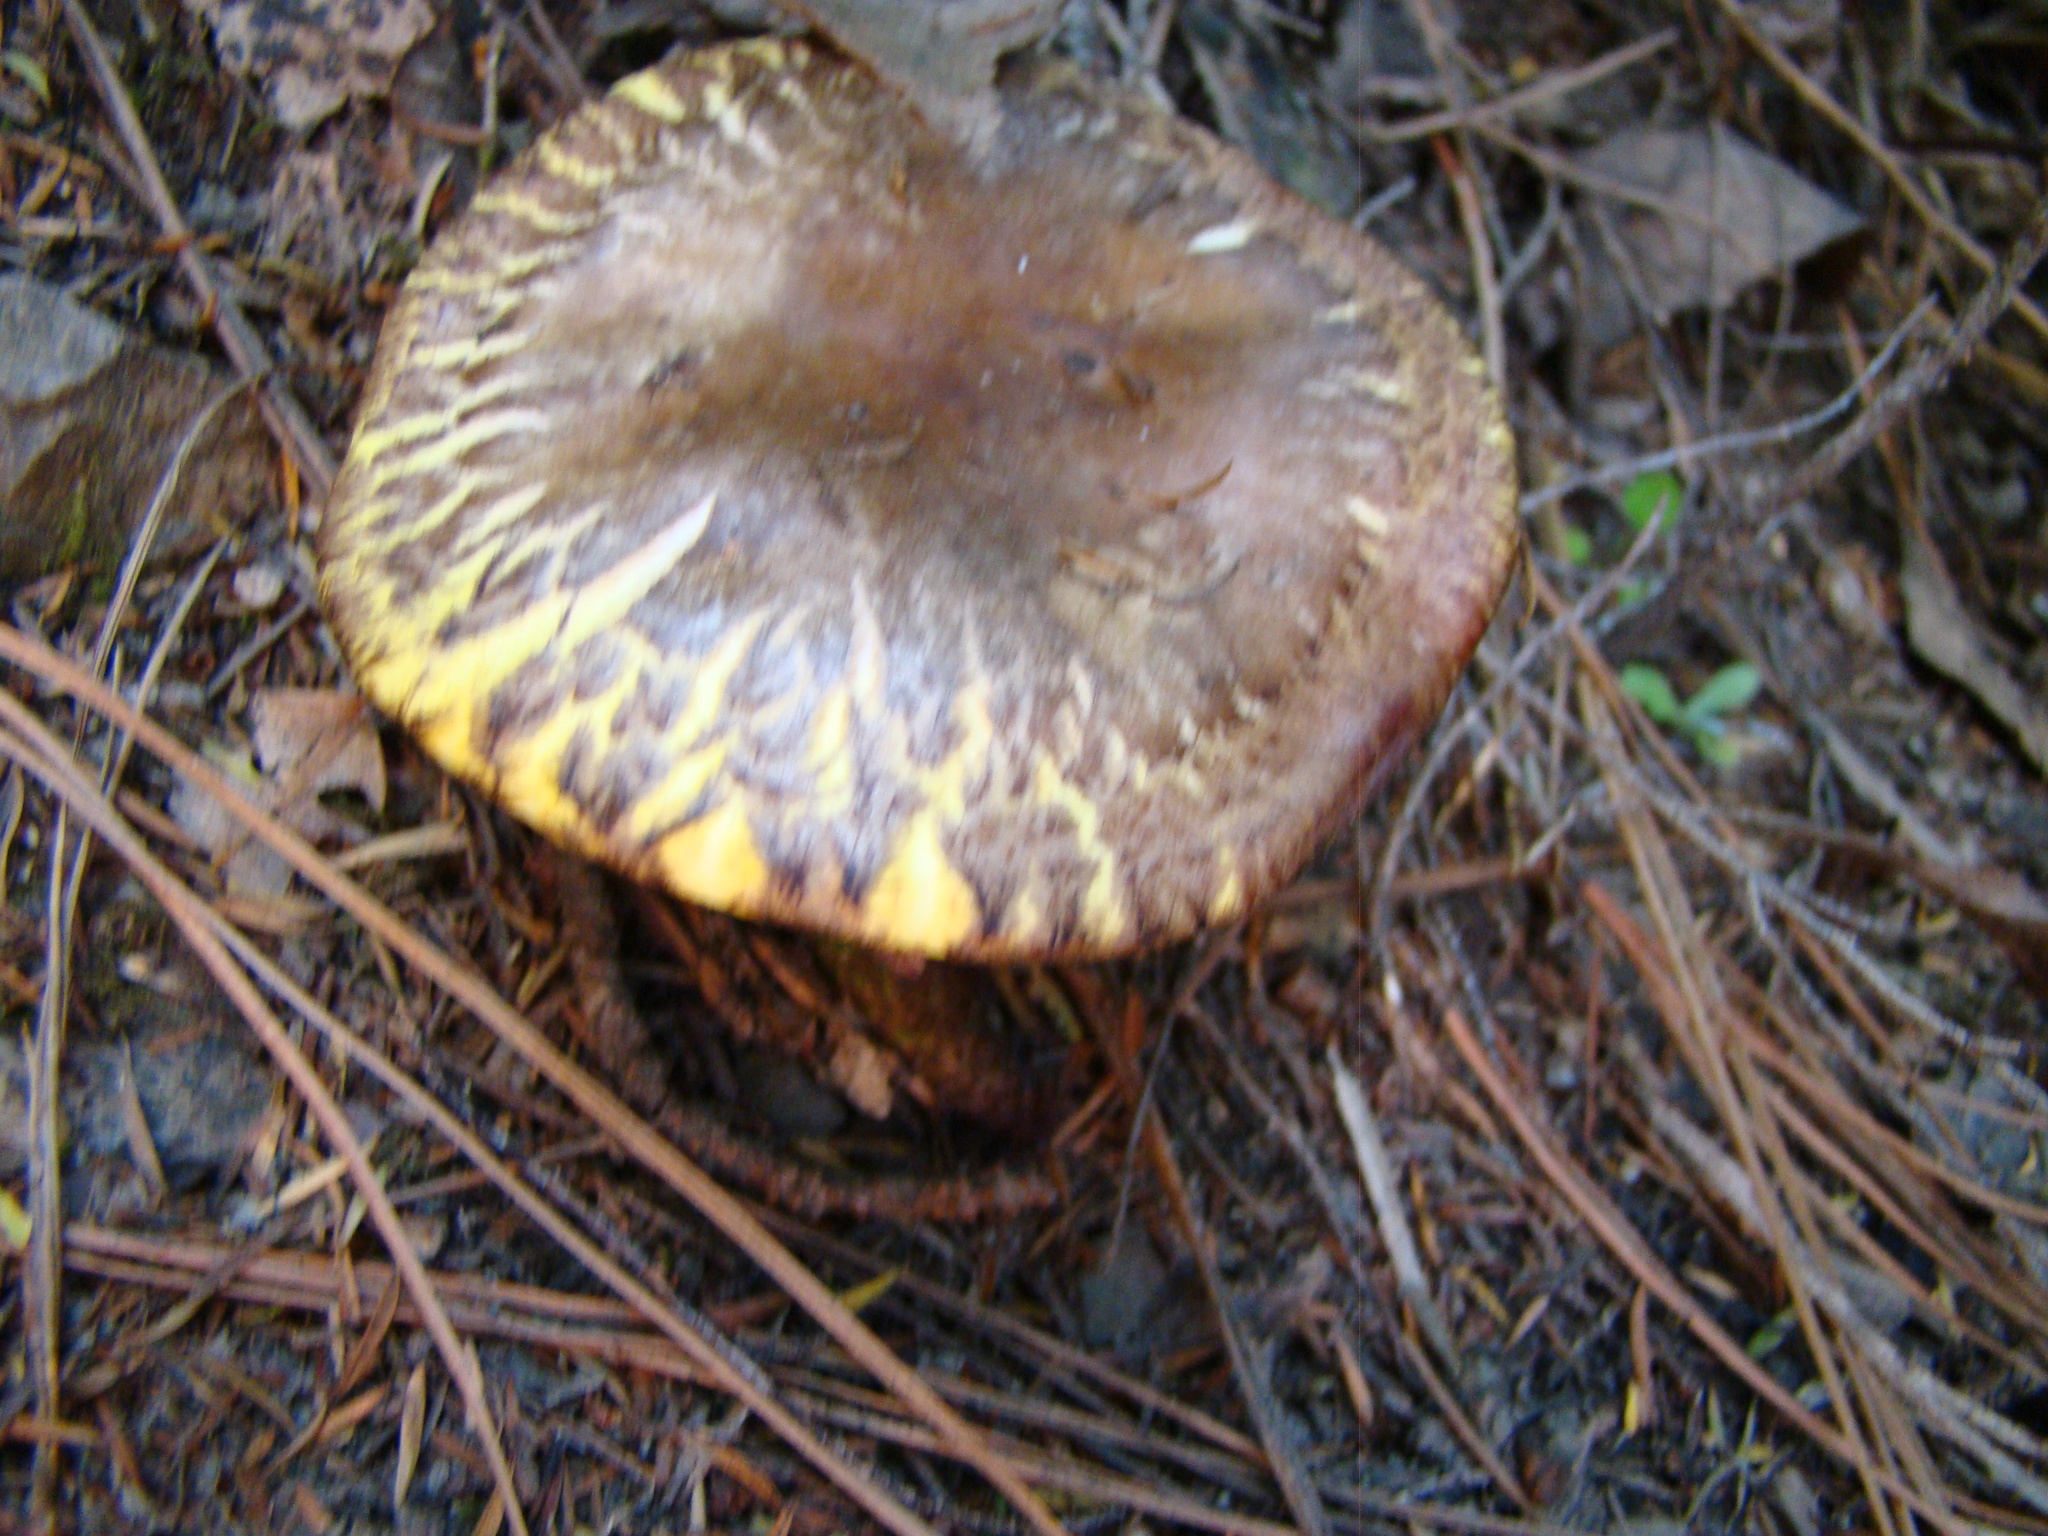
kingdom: Fungi
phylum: Basidiomycota
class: Agaricomycetes
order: Boletales
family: Suillaceae
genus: Suillus
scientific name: Suillus luteus
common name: Slippery jack
